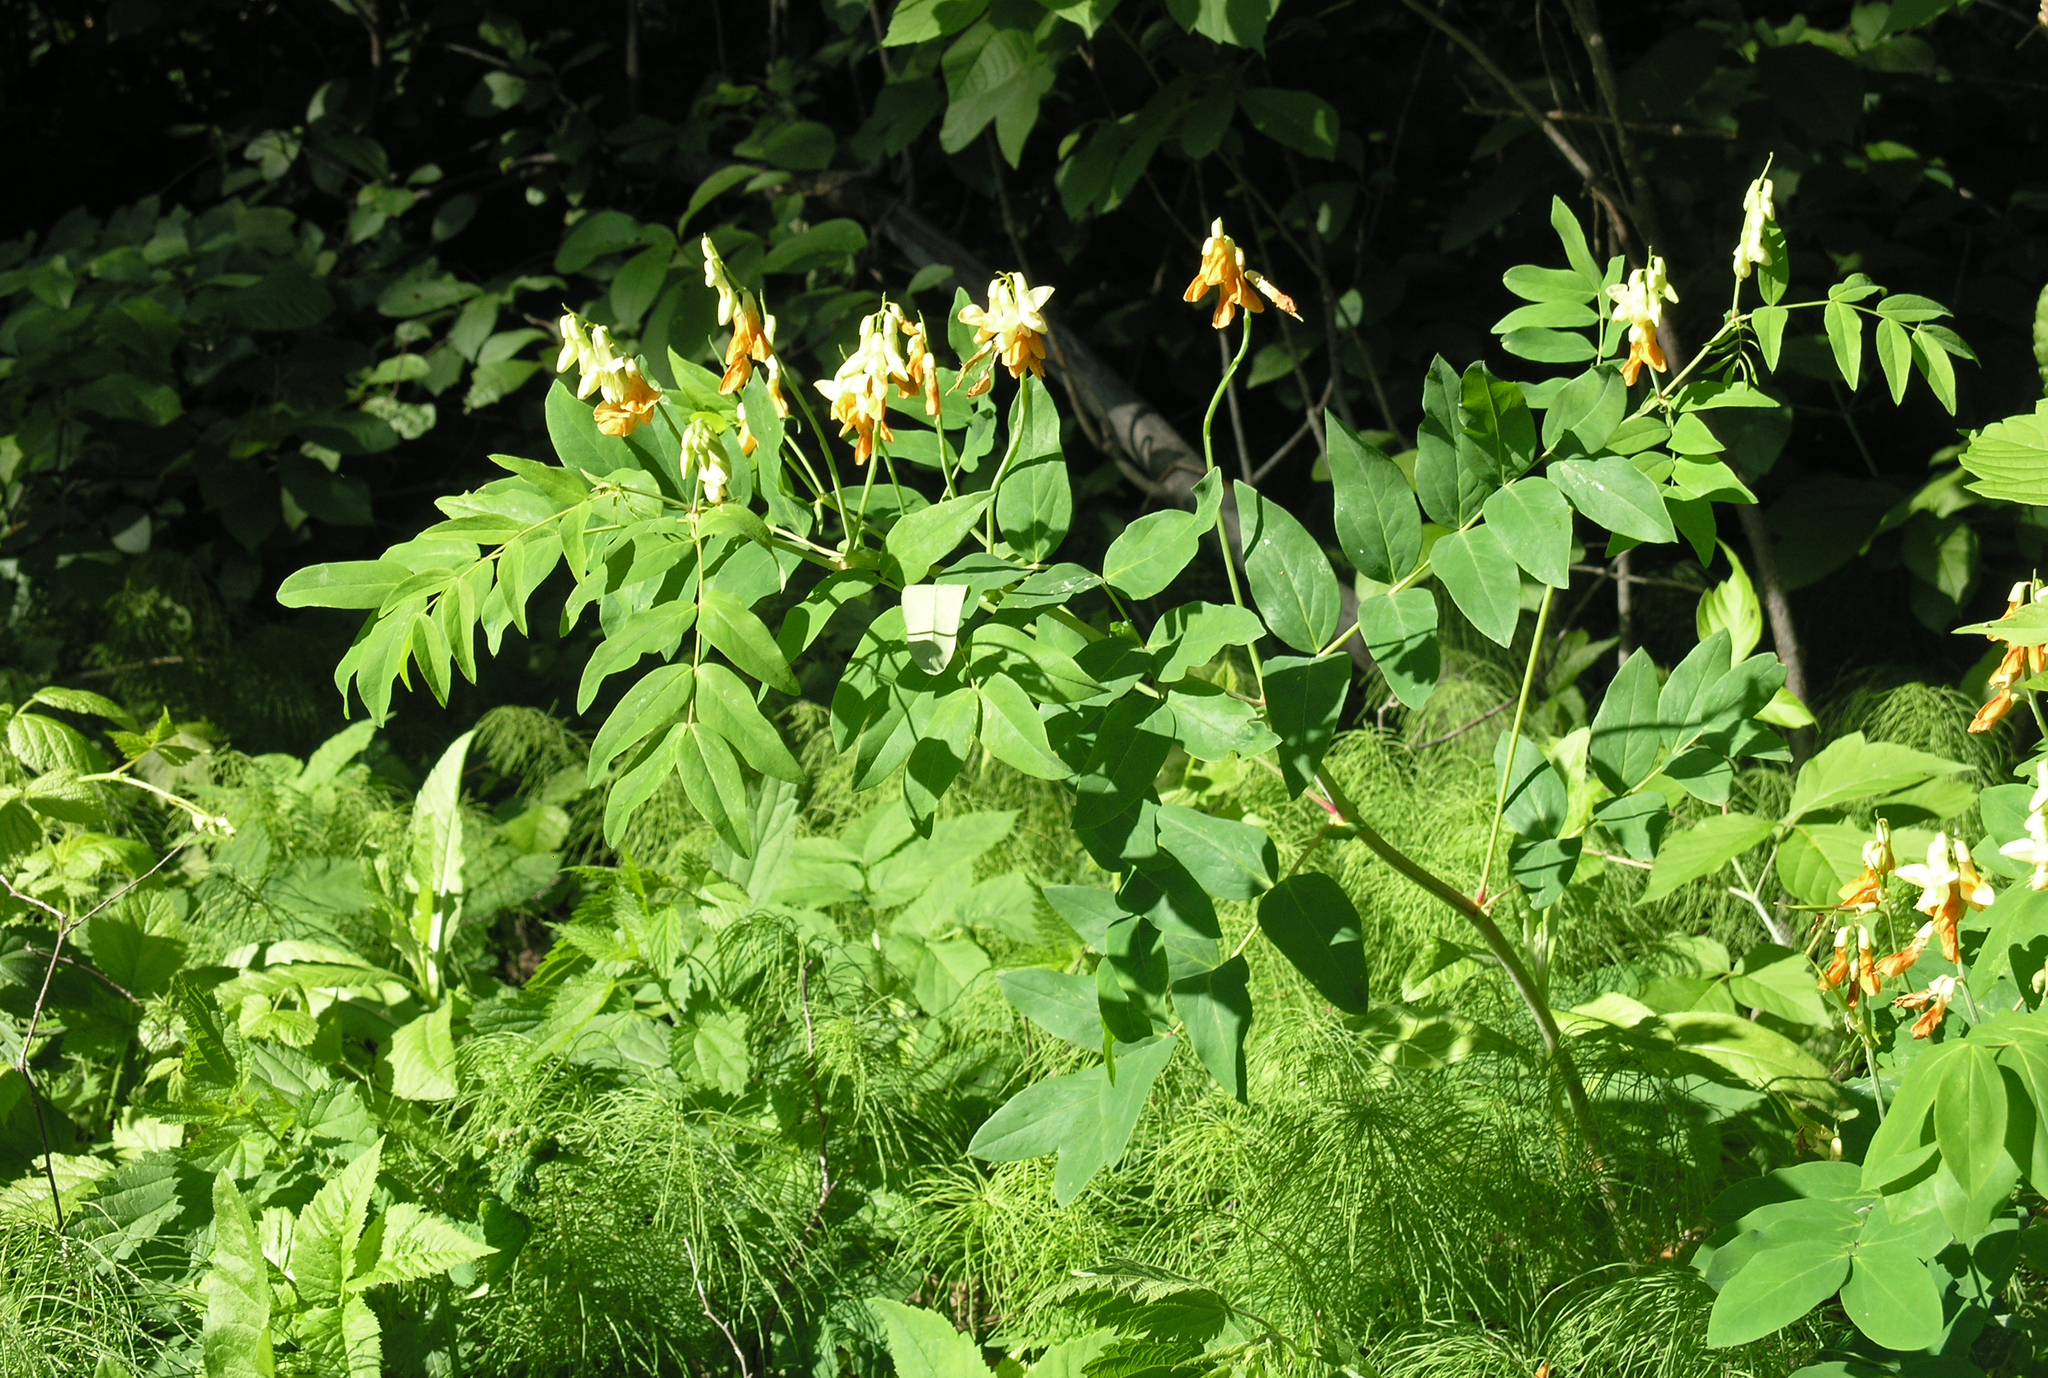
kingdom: Plantae
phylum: Tracheophyta
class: Magnoliopsida
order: Fabales
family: Fabaceae
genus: Lathyrus
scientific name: Lathyrus gmelinii
